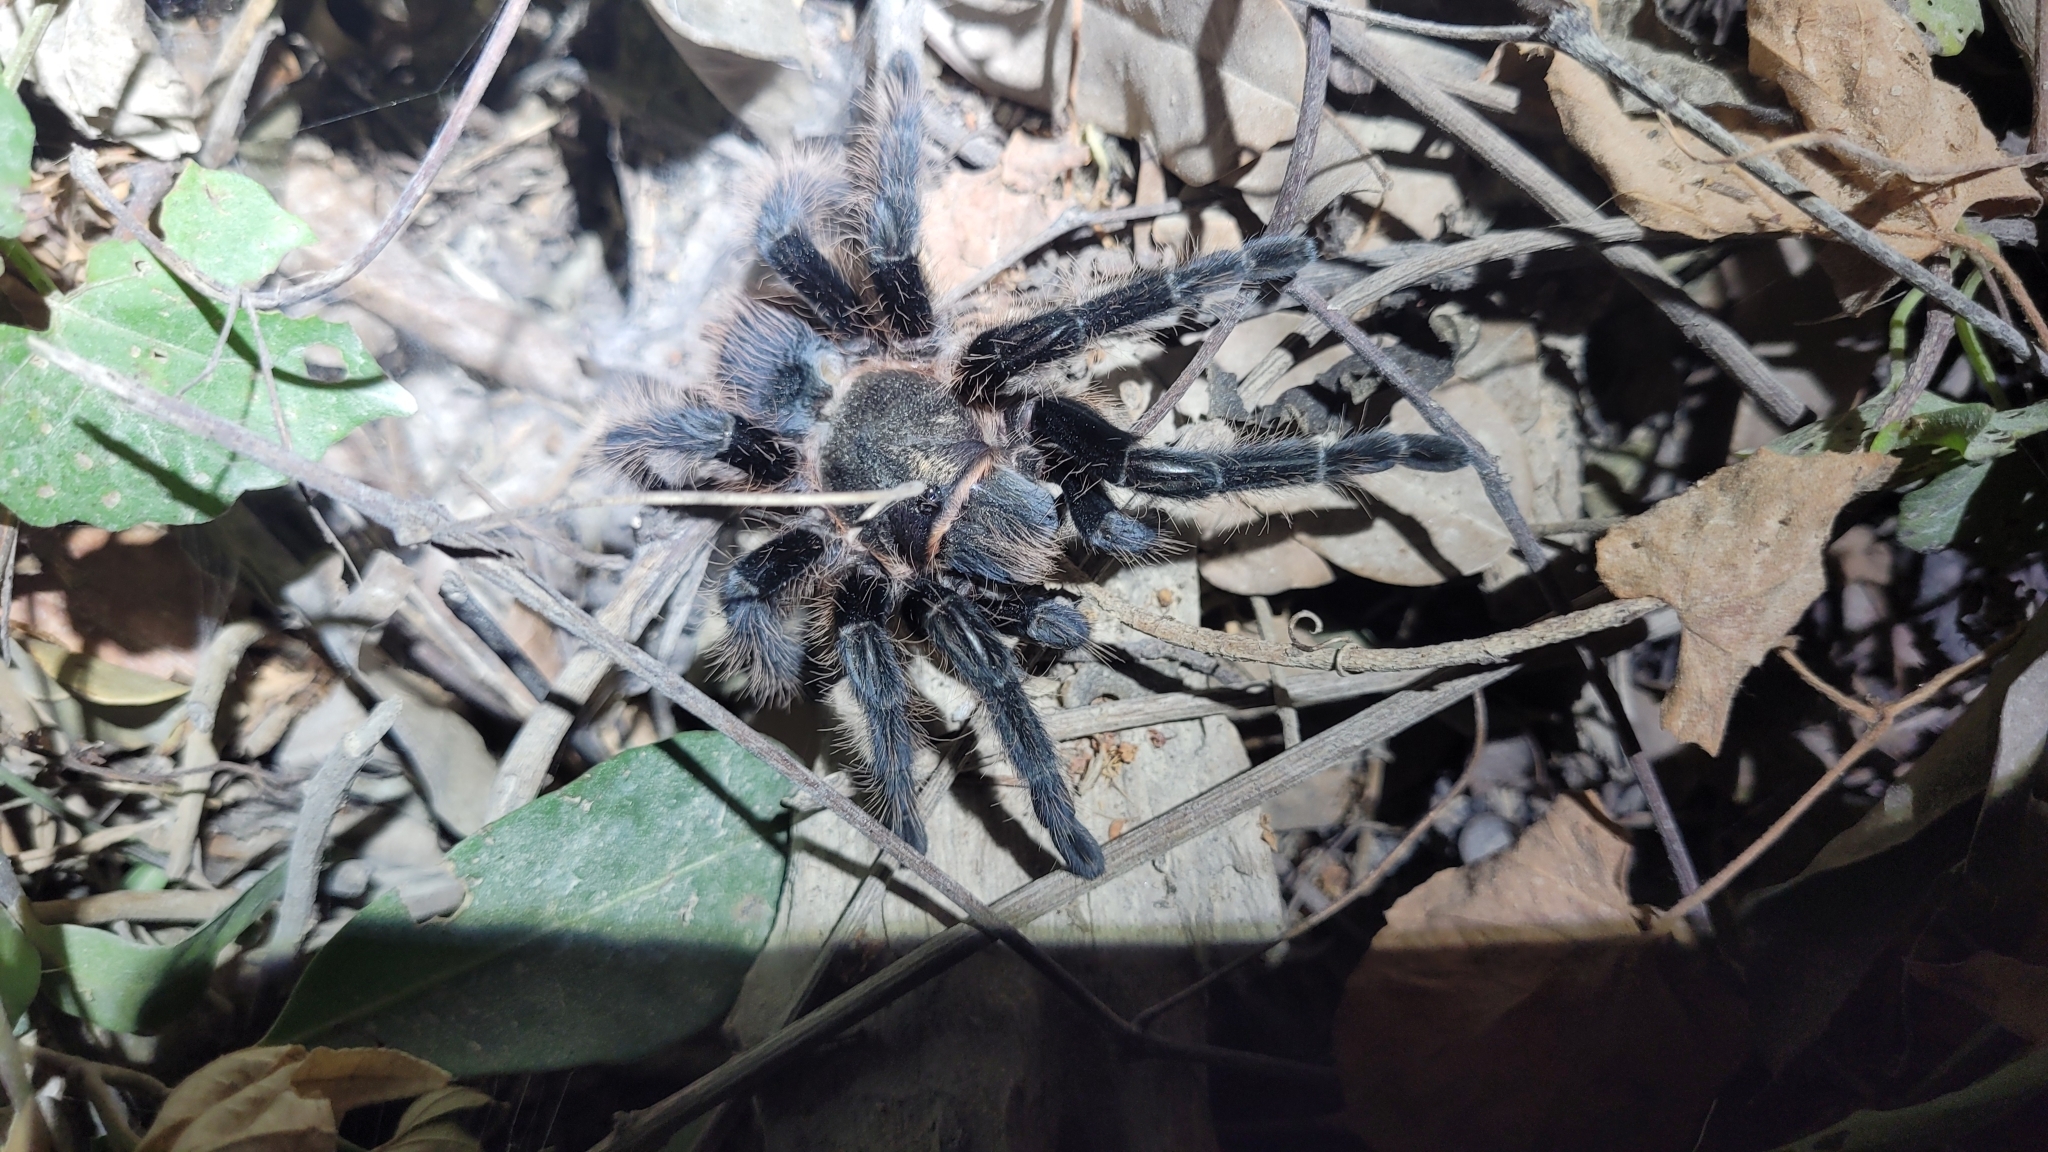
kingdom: Animalia
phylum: Arthropoda
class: Arachnida
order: Araneae
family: Theraphosidae
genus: Tliltocatl
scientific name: Tliltocatl albopilosus
